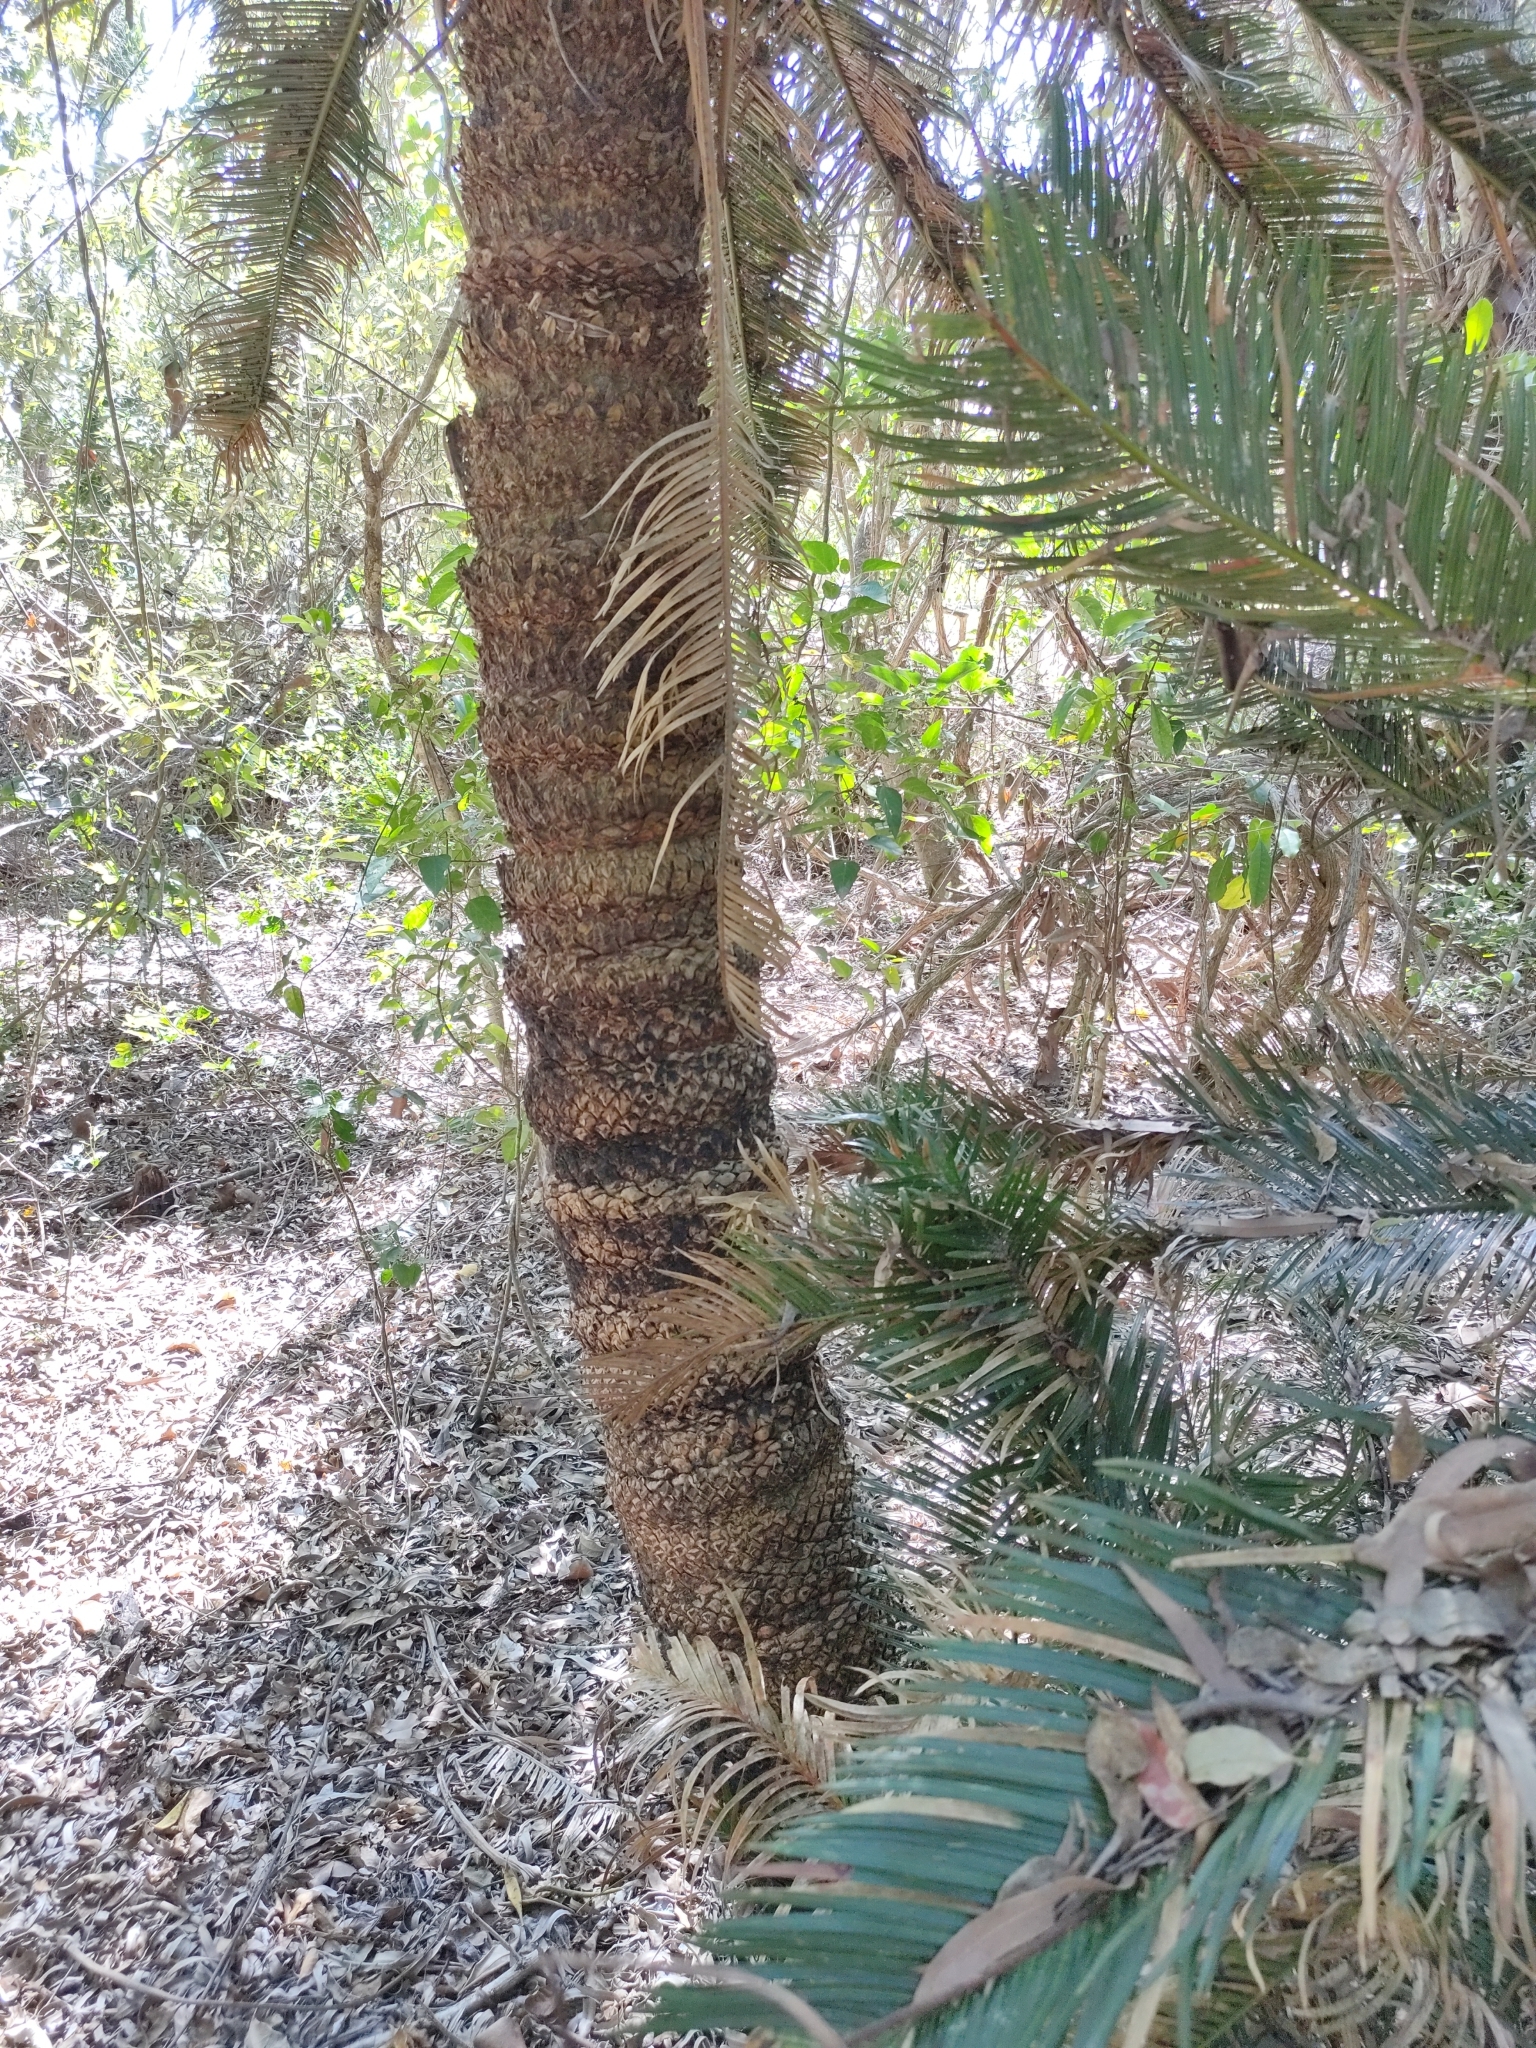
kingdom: Plantae
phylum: Tracheophyta
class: Cycadopsida
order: Cycadales
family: Cycadaceae
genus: Cycas
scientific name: Cycas ophiolitica
